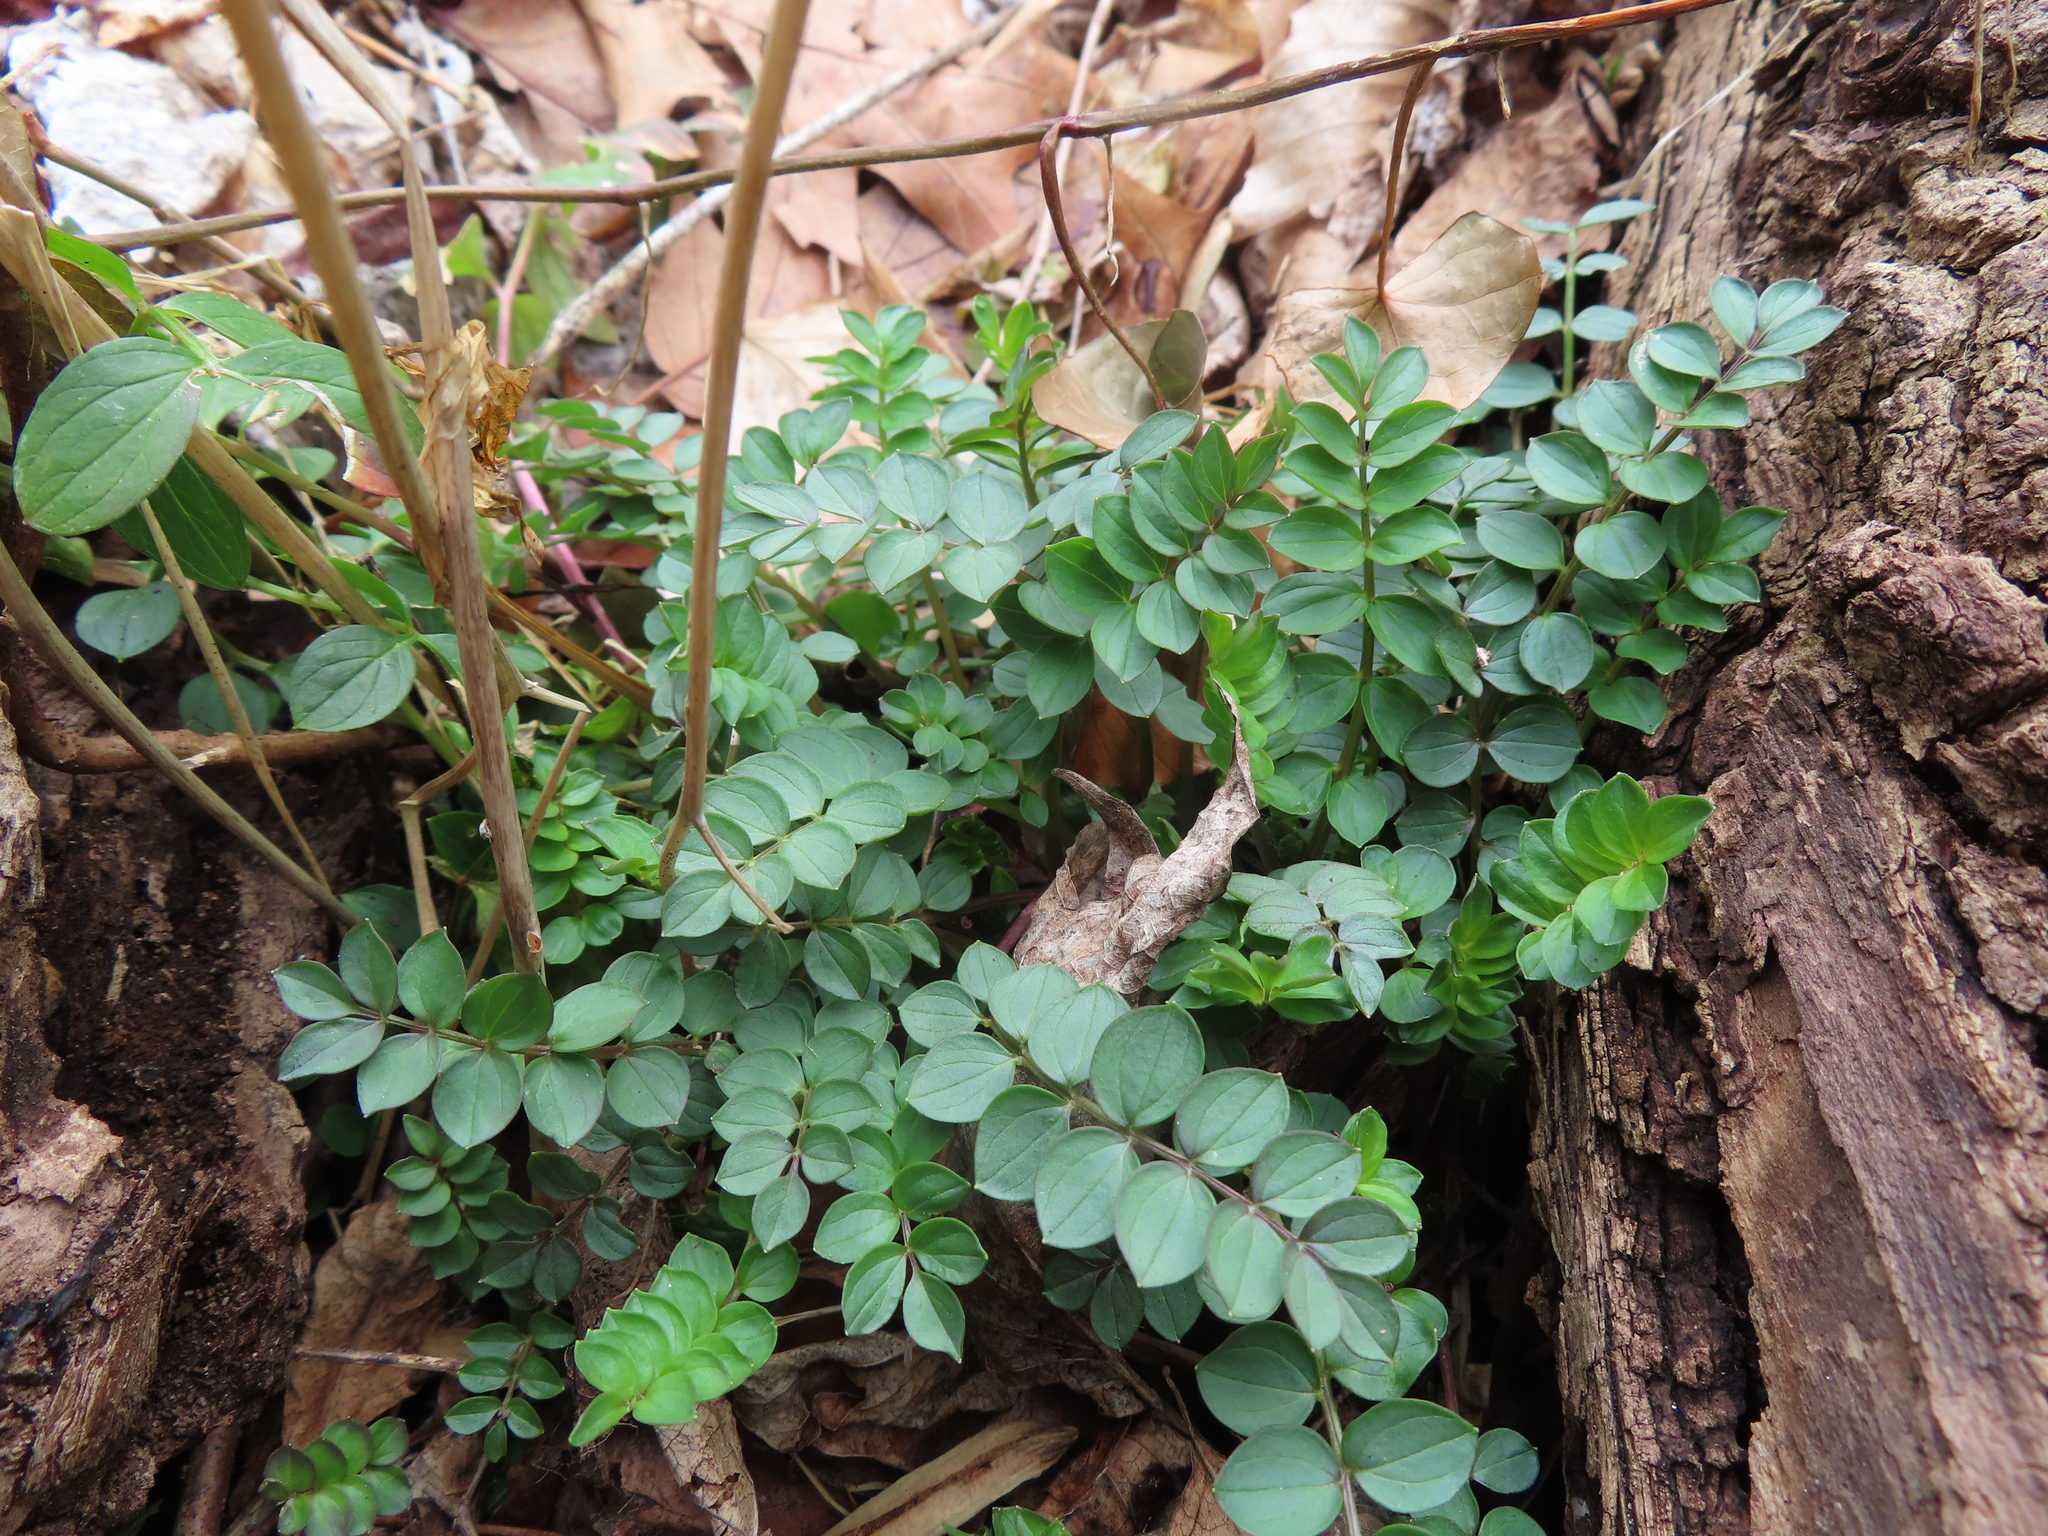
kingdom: Plantae
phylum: Tracheophyta
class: Magnoliopsida
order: Ericales
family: Polemoniaceae
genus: Polemonium
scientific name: Polemonium reptans
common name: Creeping jacob's-ladder
